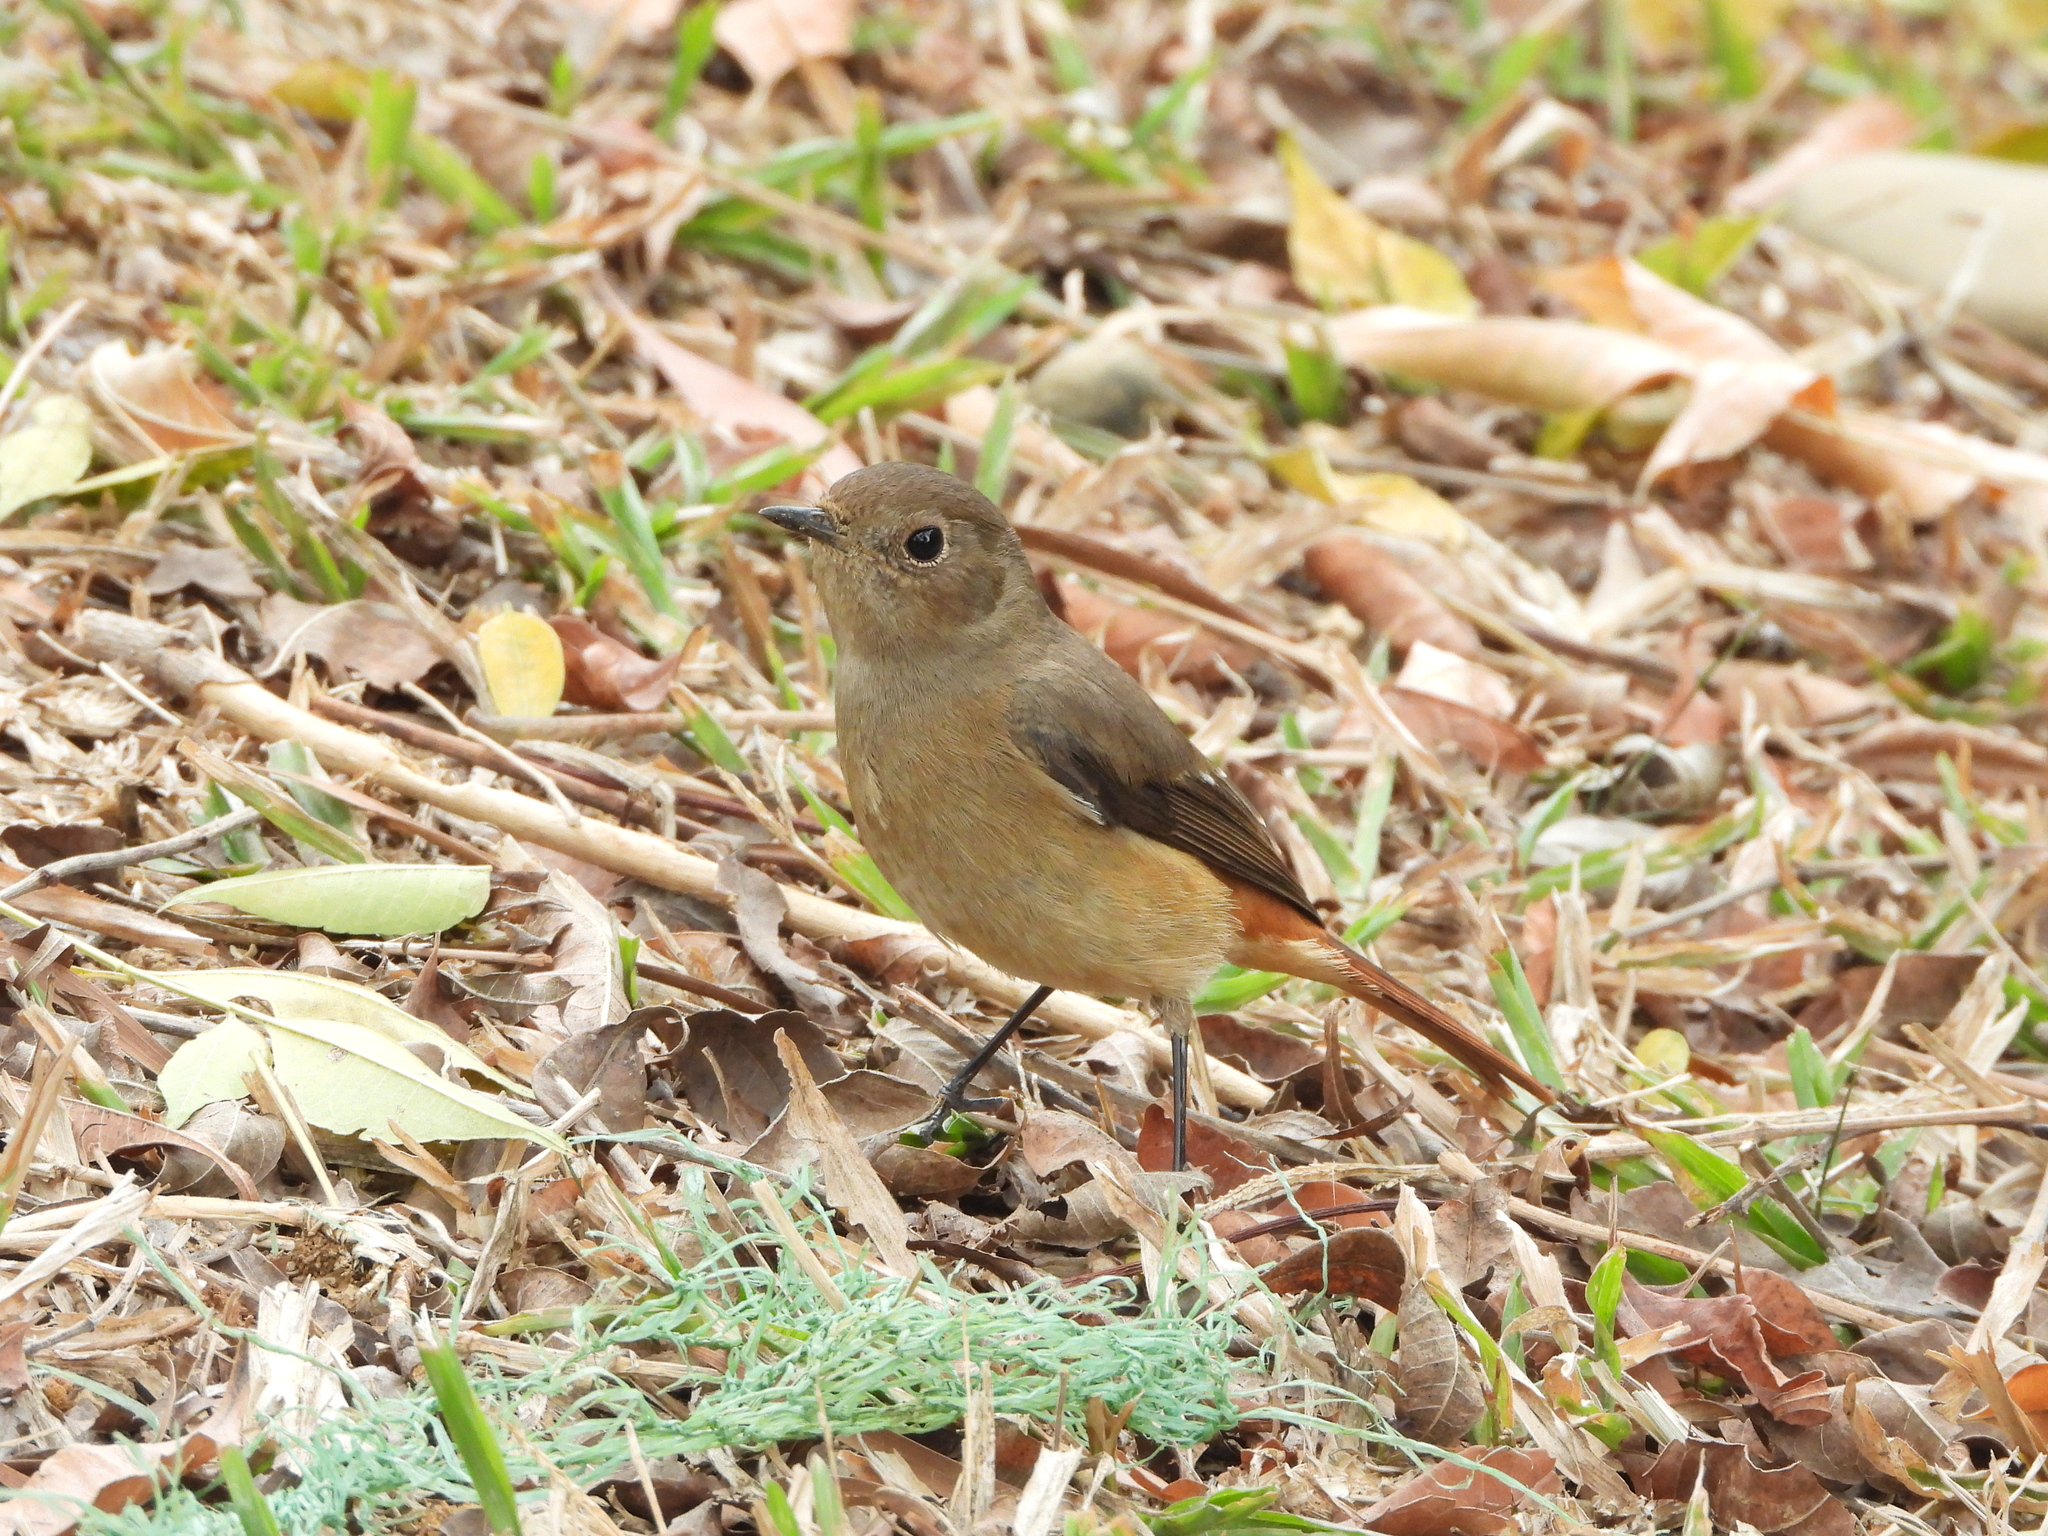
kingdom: Animalia
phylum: Chordata
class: Aves
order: Passeriformes
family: Muscicapidae
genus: Phoenicurus
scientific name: Phoenicurus auroreus
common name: Daurian redstart
